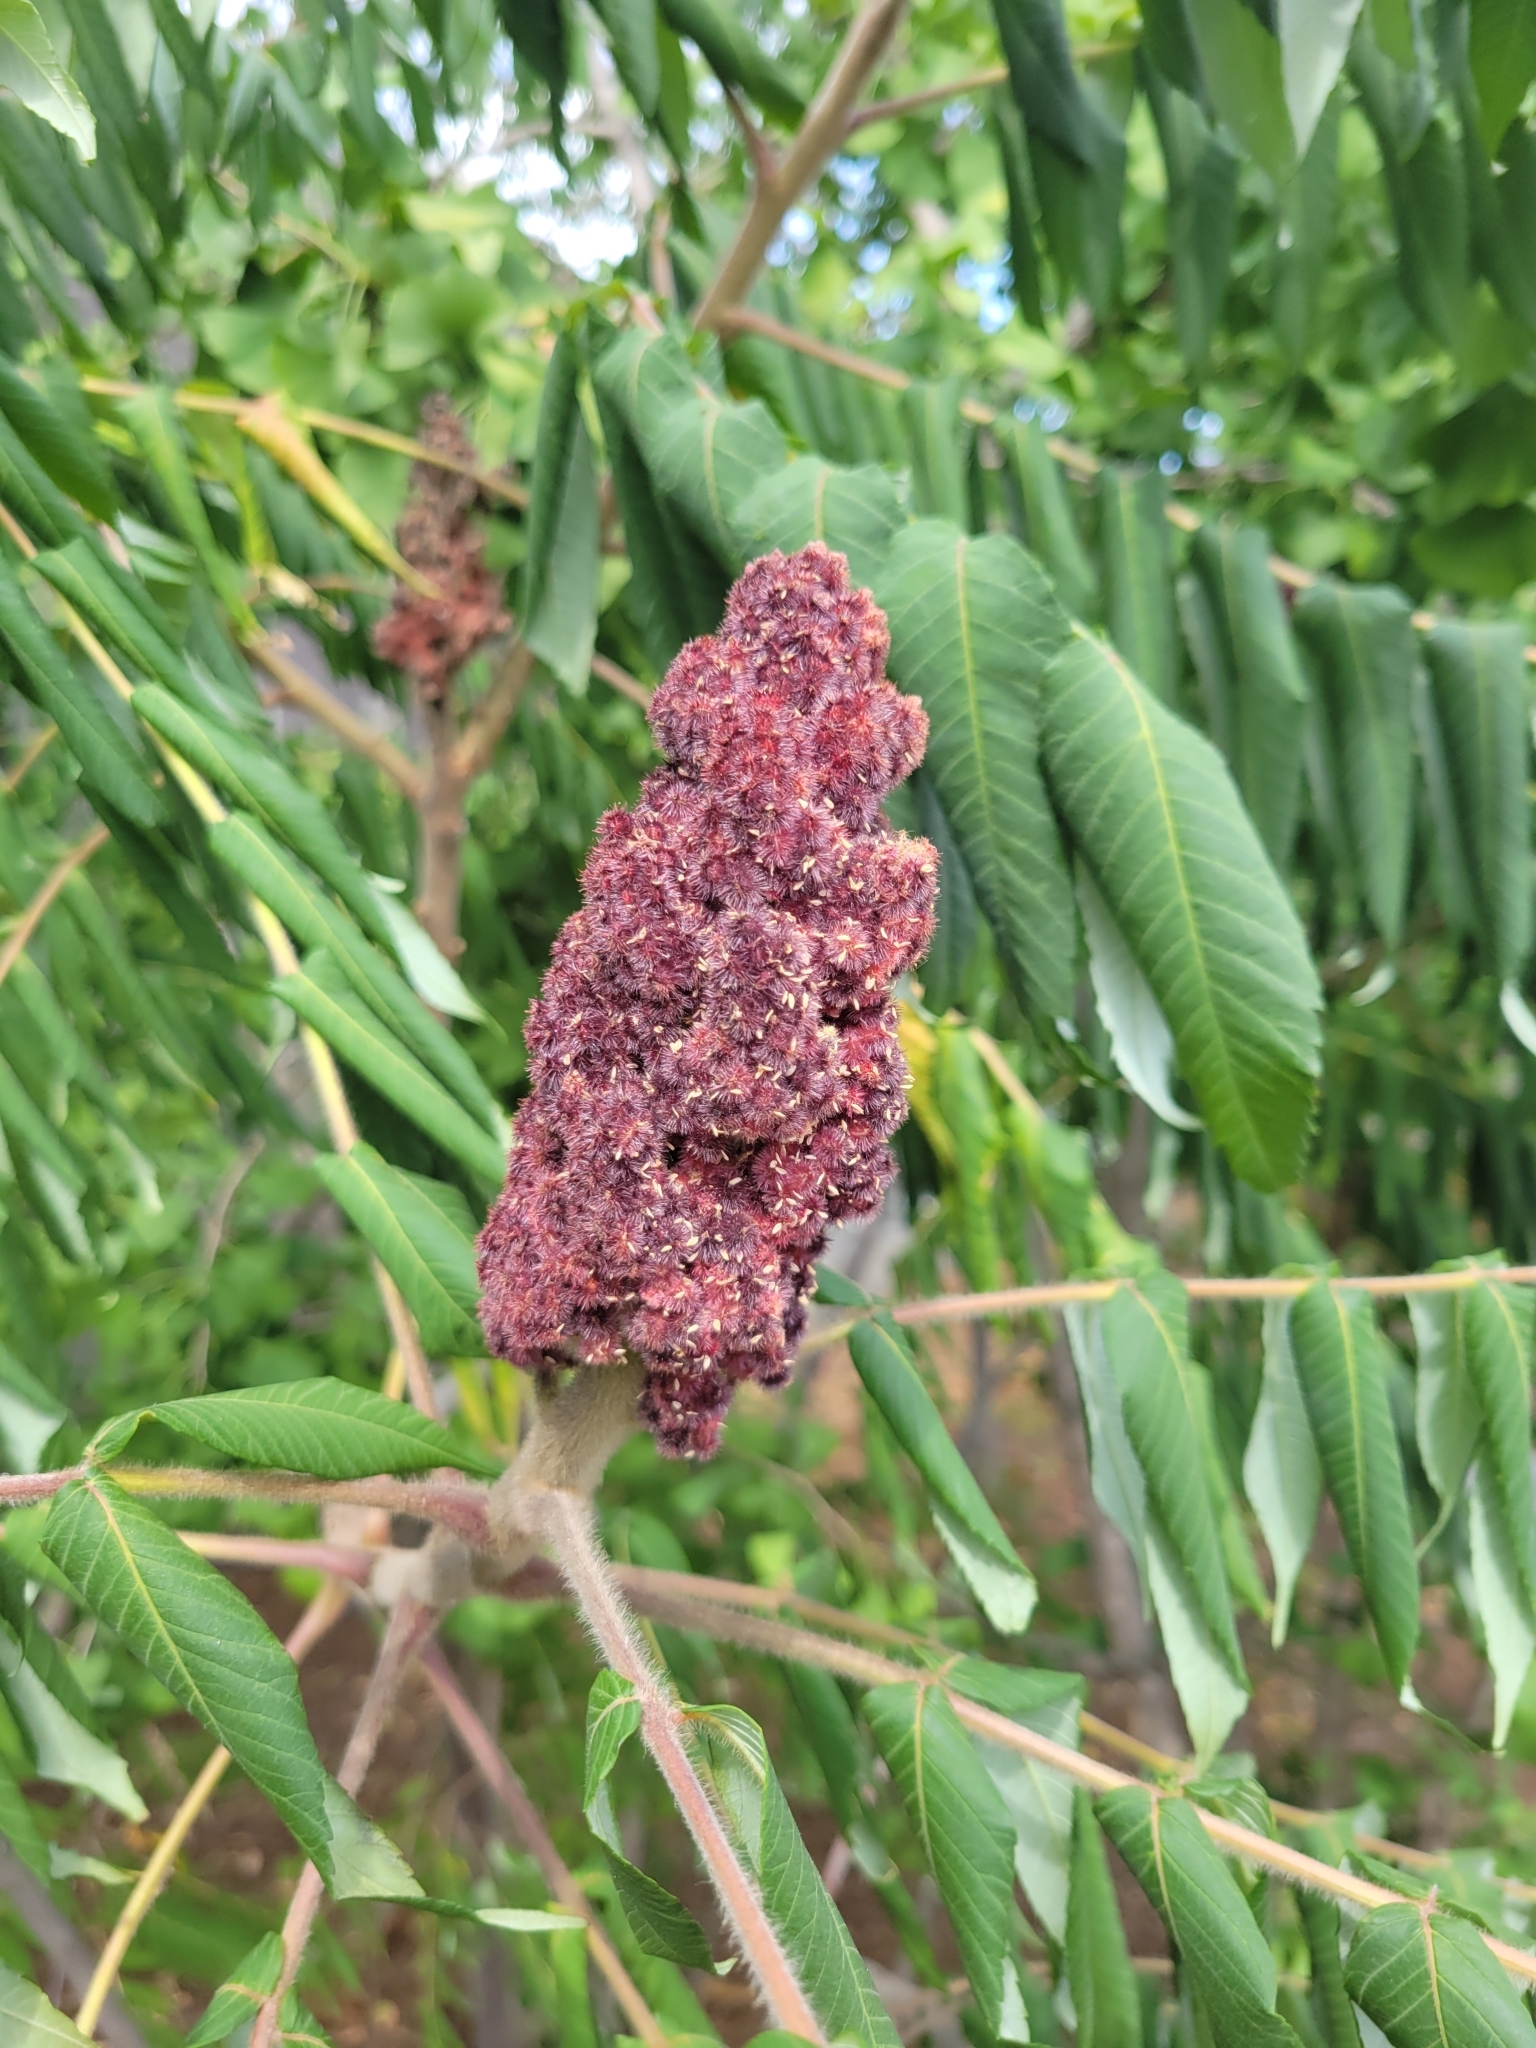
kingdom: Plantae
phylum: Tracheophyta
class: Magnoliopsida
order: Sapindales
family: Anacardiaceae
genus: Rhus
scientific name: Rhus typhina
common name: Staghorn sumac
